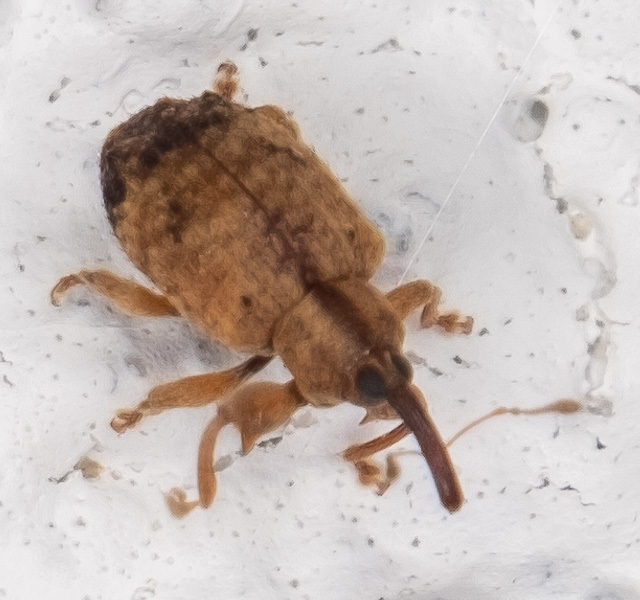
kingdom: Animalia
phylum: Arthropoda
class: Insecta
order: Coleoptera
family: Curculionidae
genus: Ochyromera
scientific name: Ochyromera ligustri
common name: Weevil
